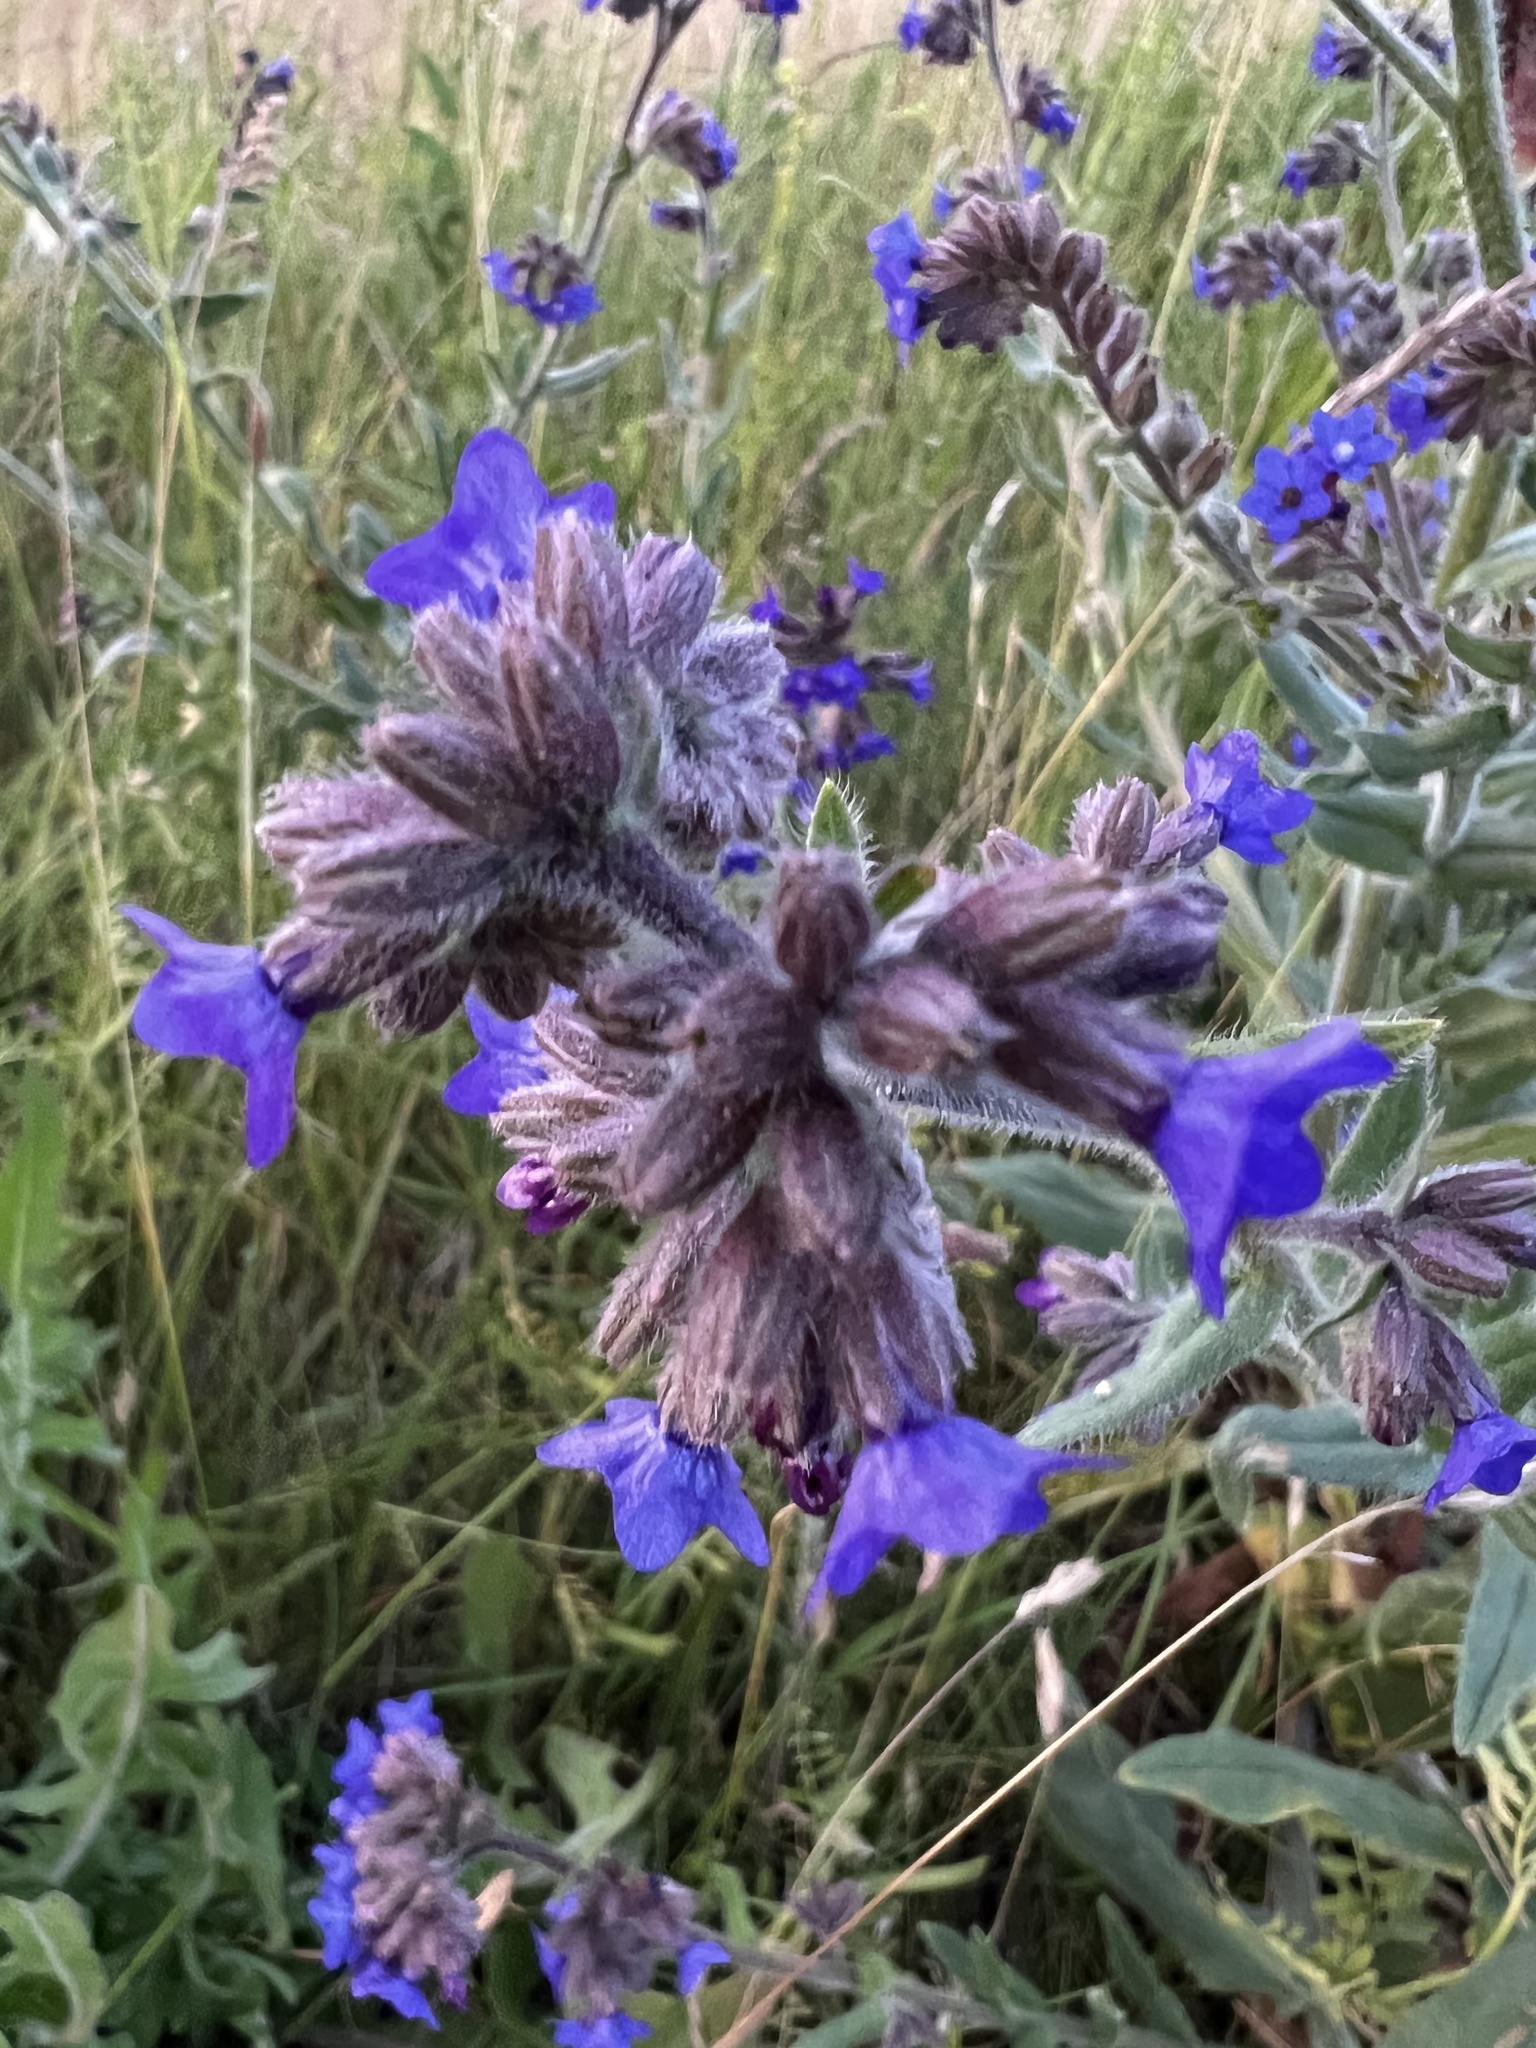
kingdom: Plantae
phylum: Tracheophyta
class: Magnoliopsida
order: Boraginales
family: Boraginaceae
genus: Anchusa
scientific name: Anchusa officinalis
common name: Alkanet
